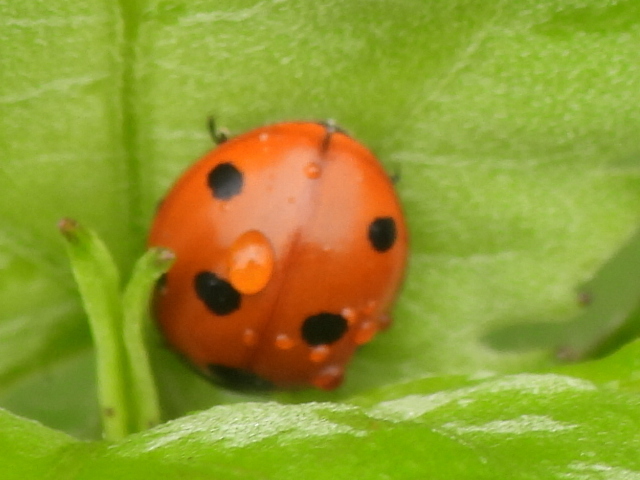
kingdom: Animalia
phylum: Arthropoda
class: Insecta
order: Coleoptera
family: Coccinellidae
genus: Coccinella
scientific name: Coccinella septempunctata
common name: Sevenspotted lady beetle
